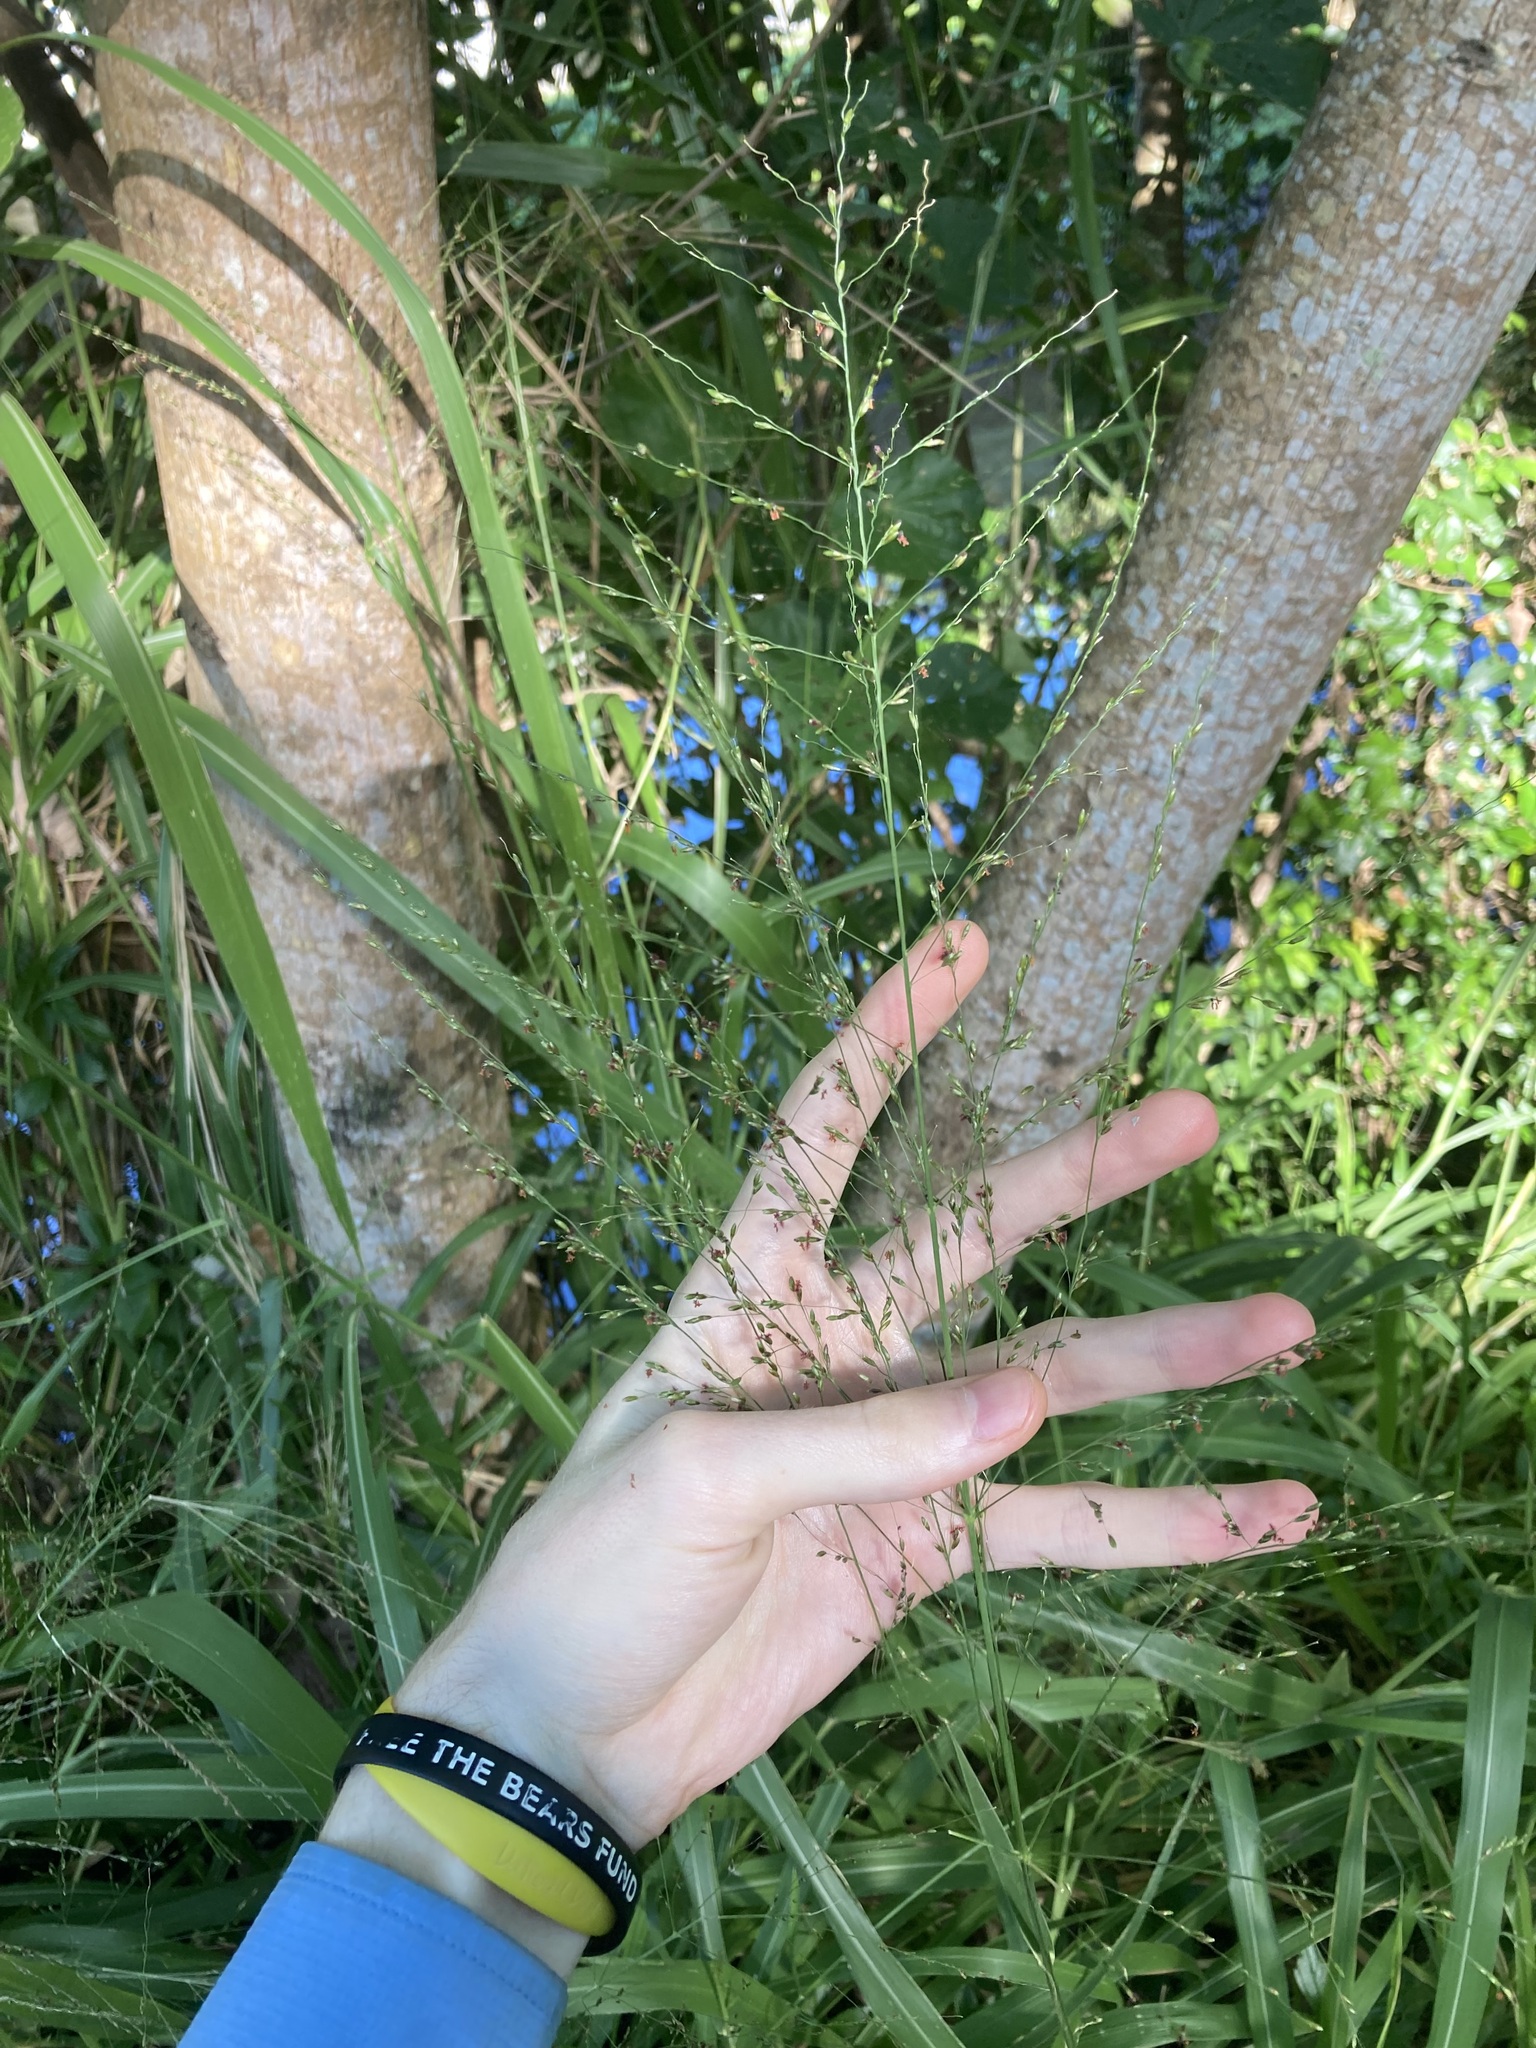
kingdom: Plantae
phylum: Tracheophyta
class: Liliopsida
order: Poales
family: Poaceae
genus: Megathyrsus
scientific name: Megathyrsus maximus
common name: Guineagrass
